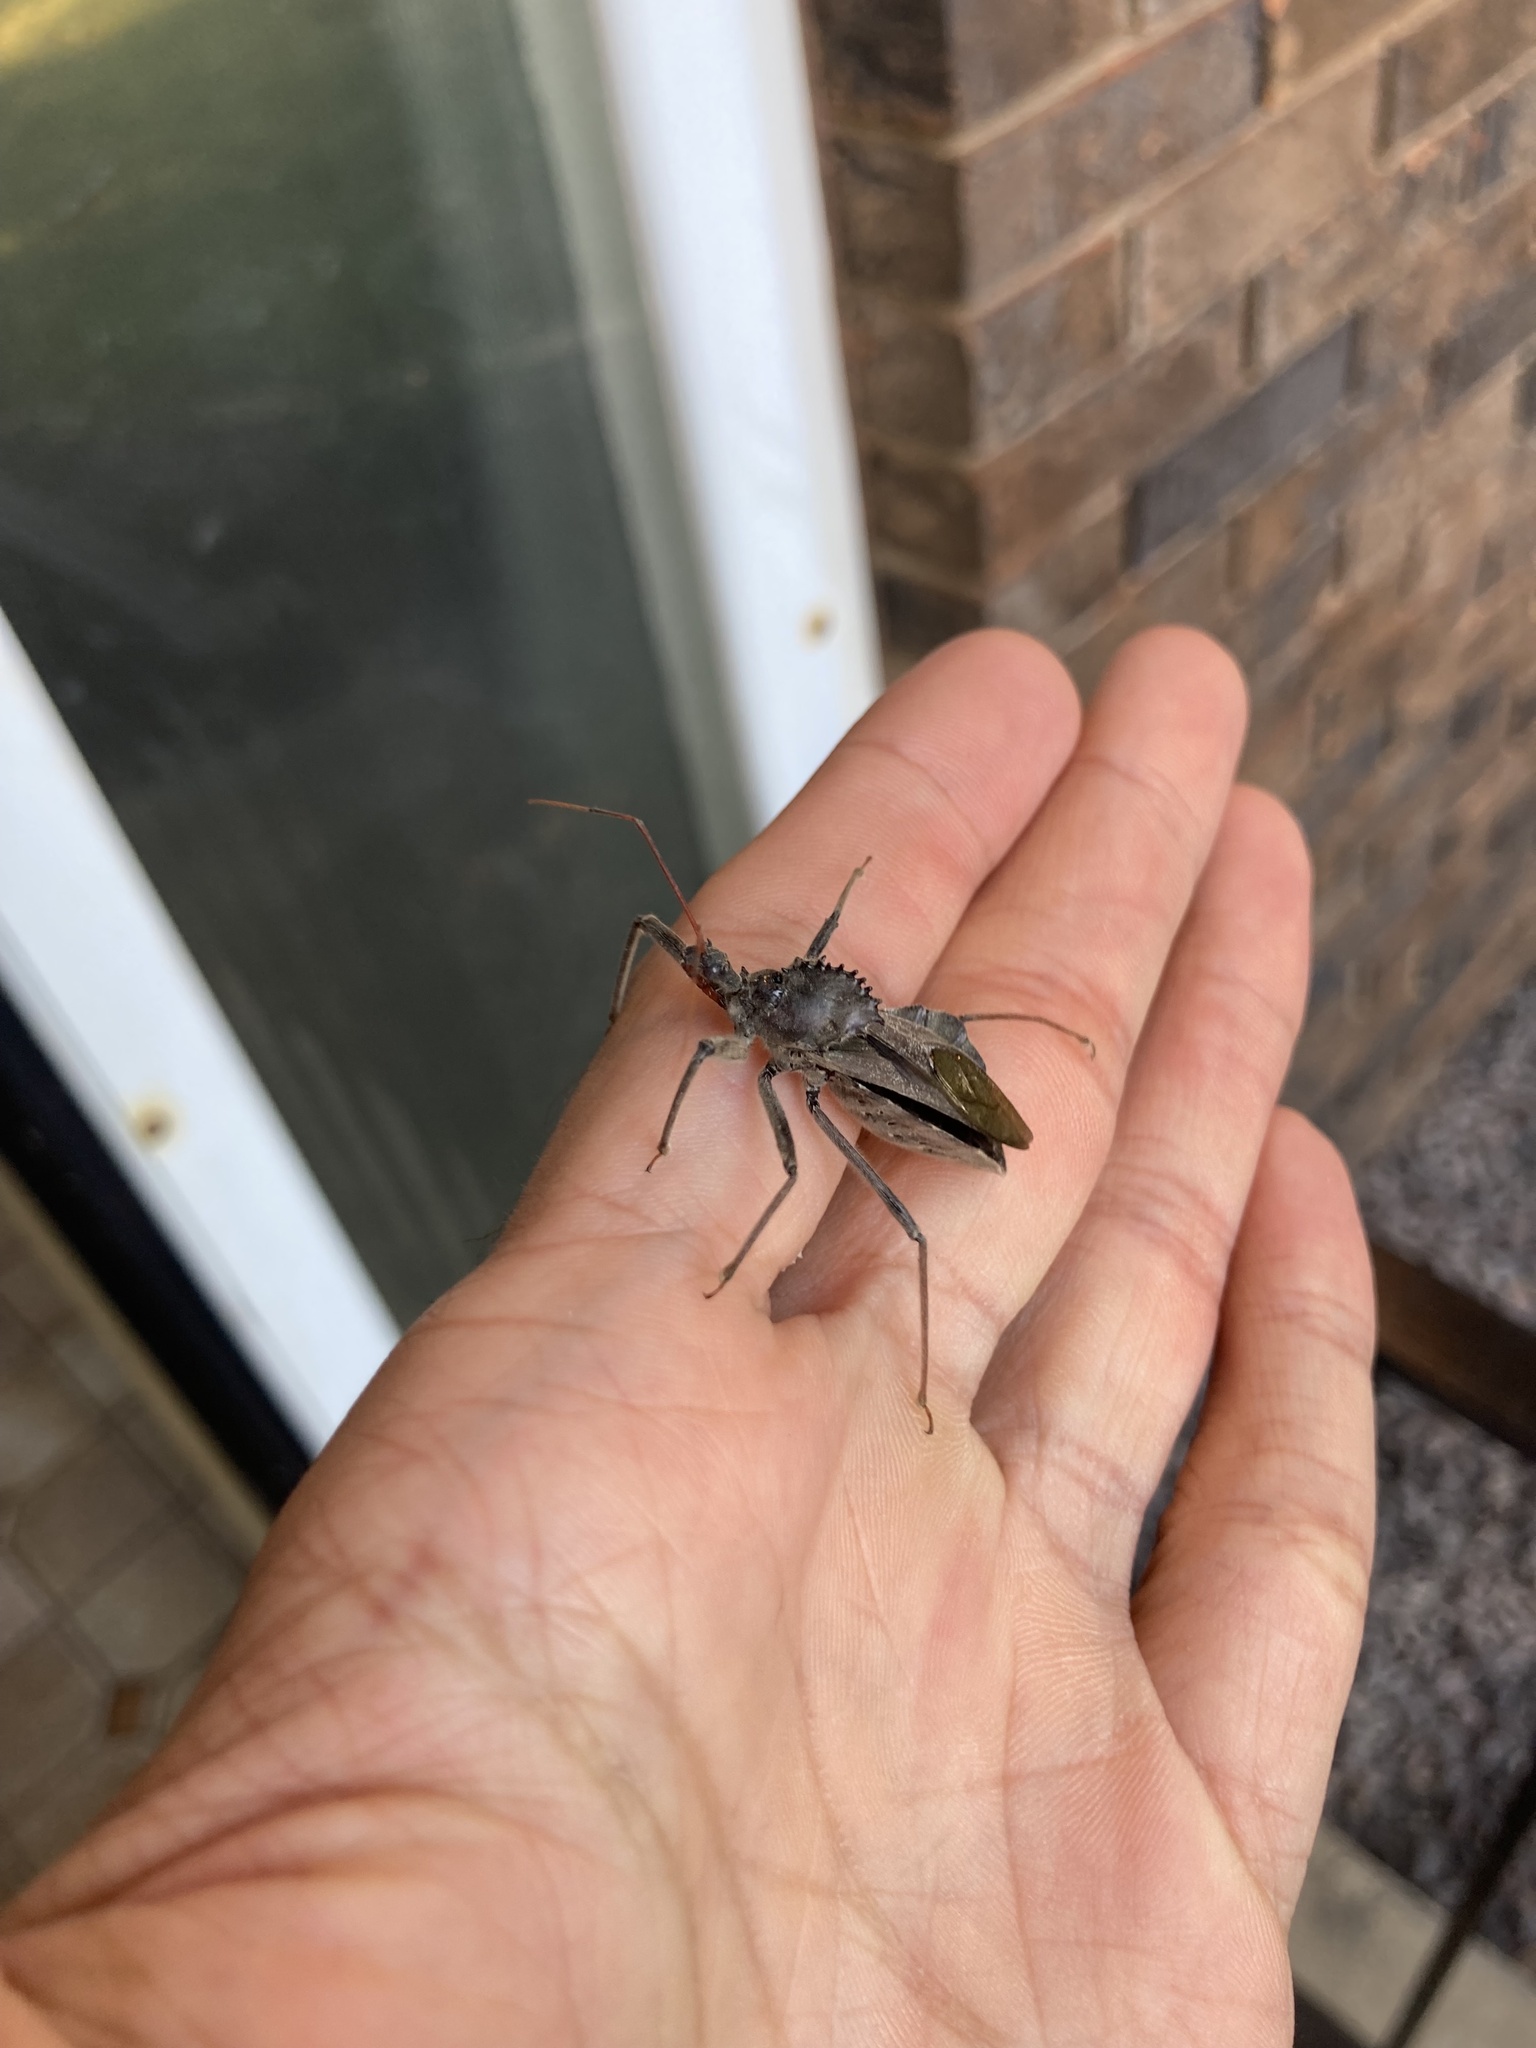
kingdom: Animalia
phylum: Arthropoda
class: Insecta
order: Hemiptera
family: Reduviidae
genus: Arilus
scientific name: Arilus cristatus
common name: North american wheel bug
